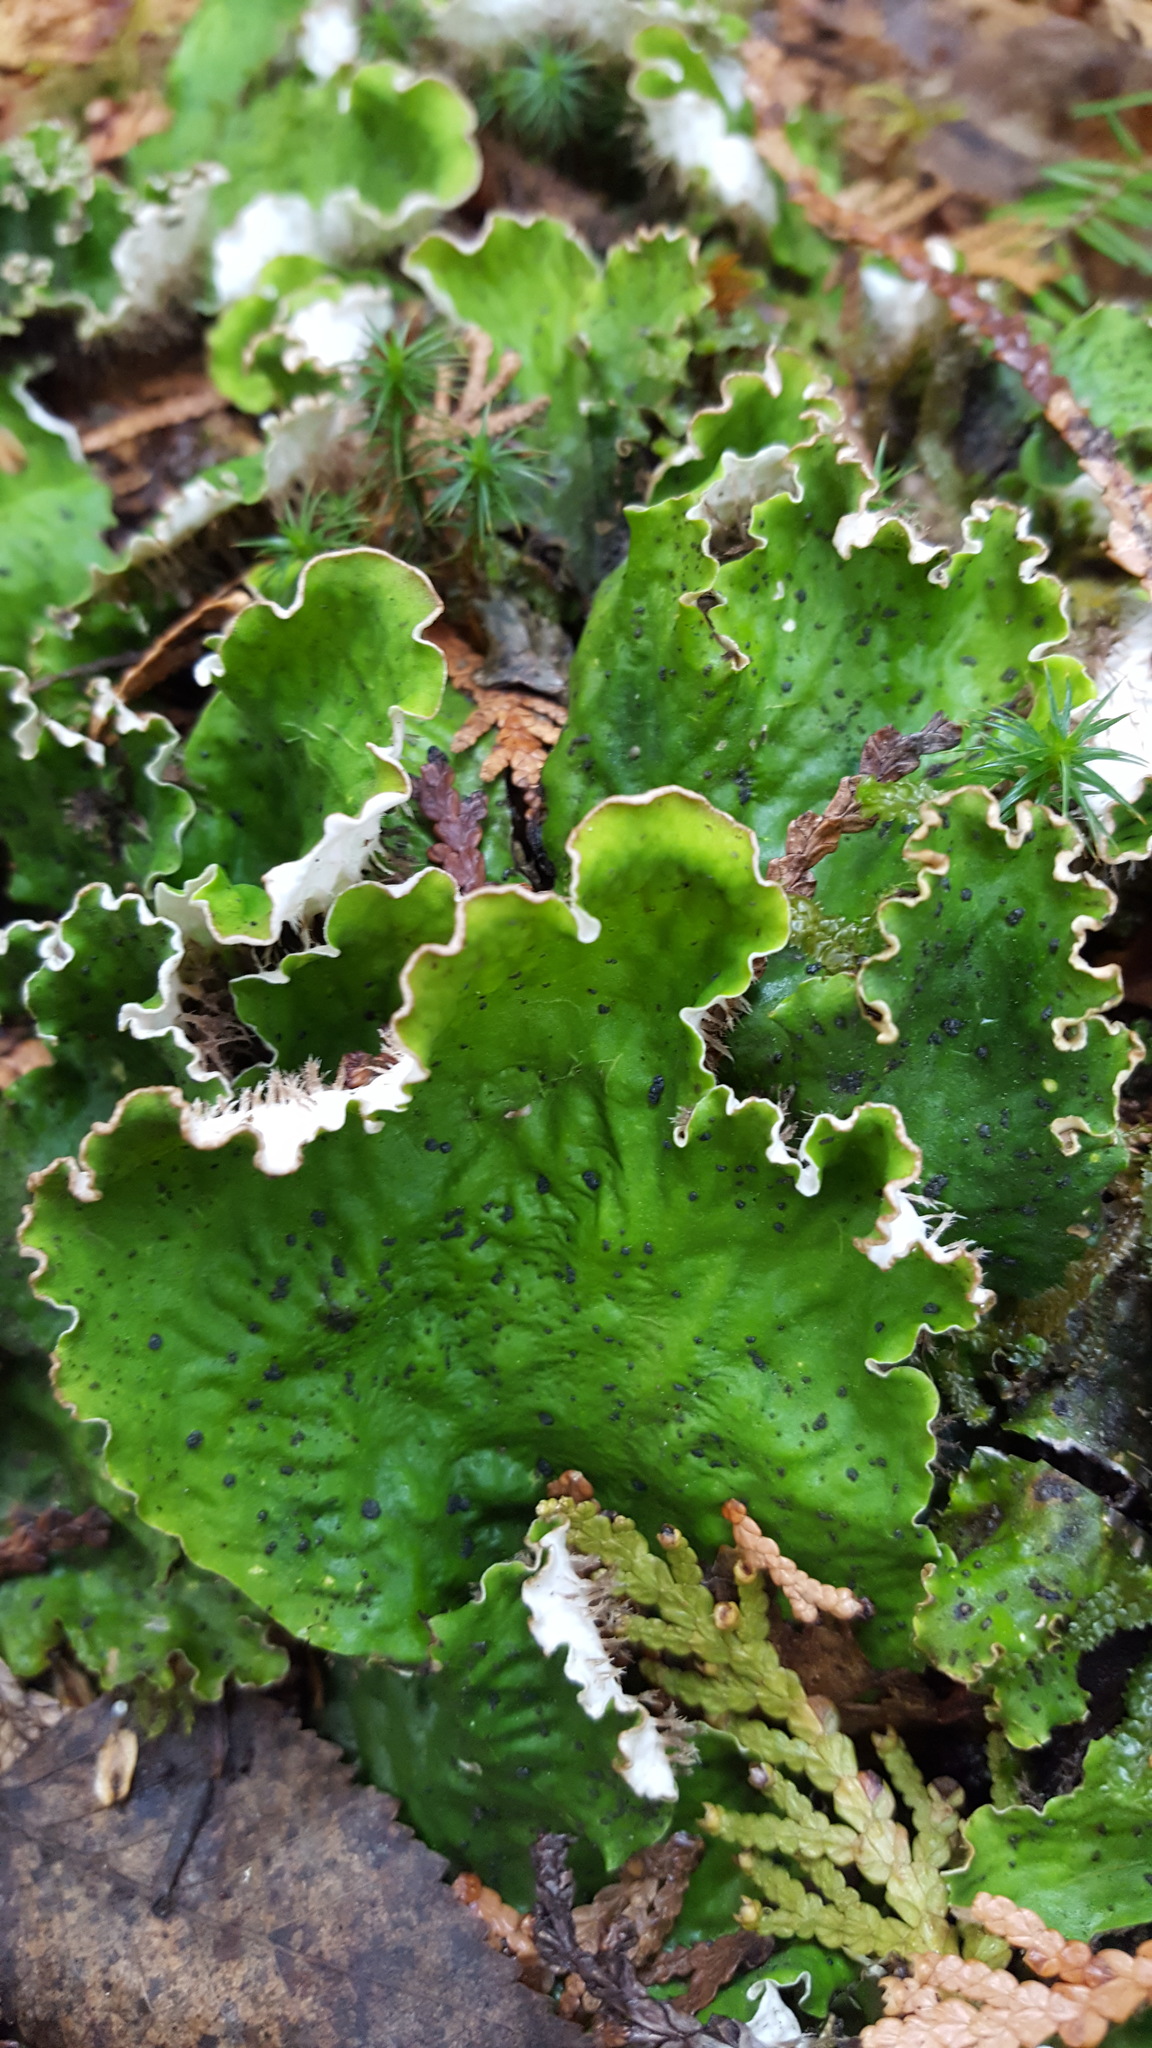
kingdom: Fungi
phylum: Ascomycota
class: Lecanoromycetes
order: Peltigerales
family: Peltigeraceae
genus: Peltigera
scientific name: Peltigera aphthosa
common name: Common freckle pelt lichen
